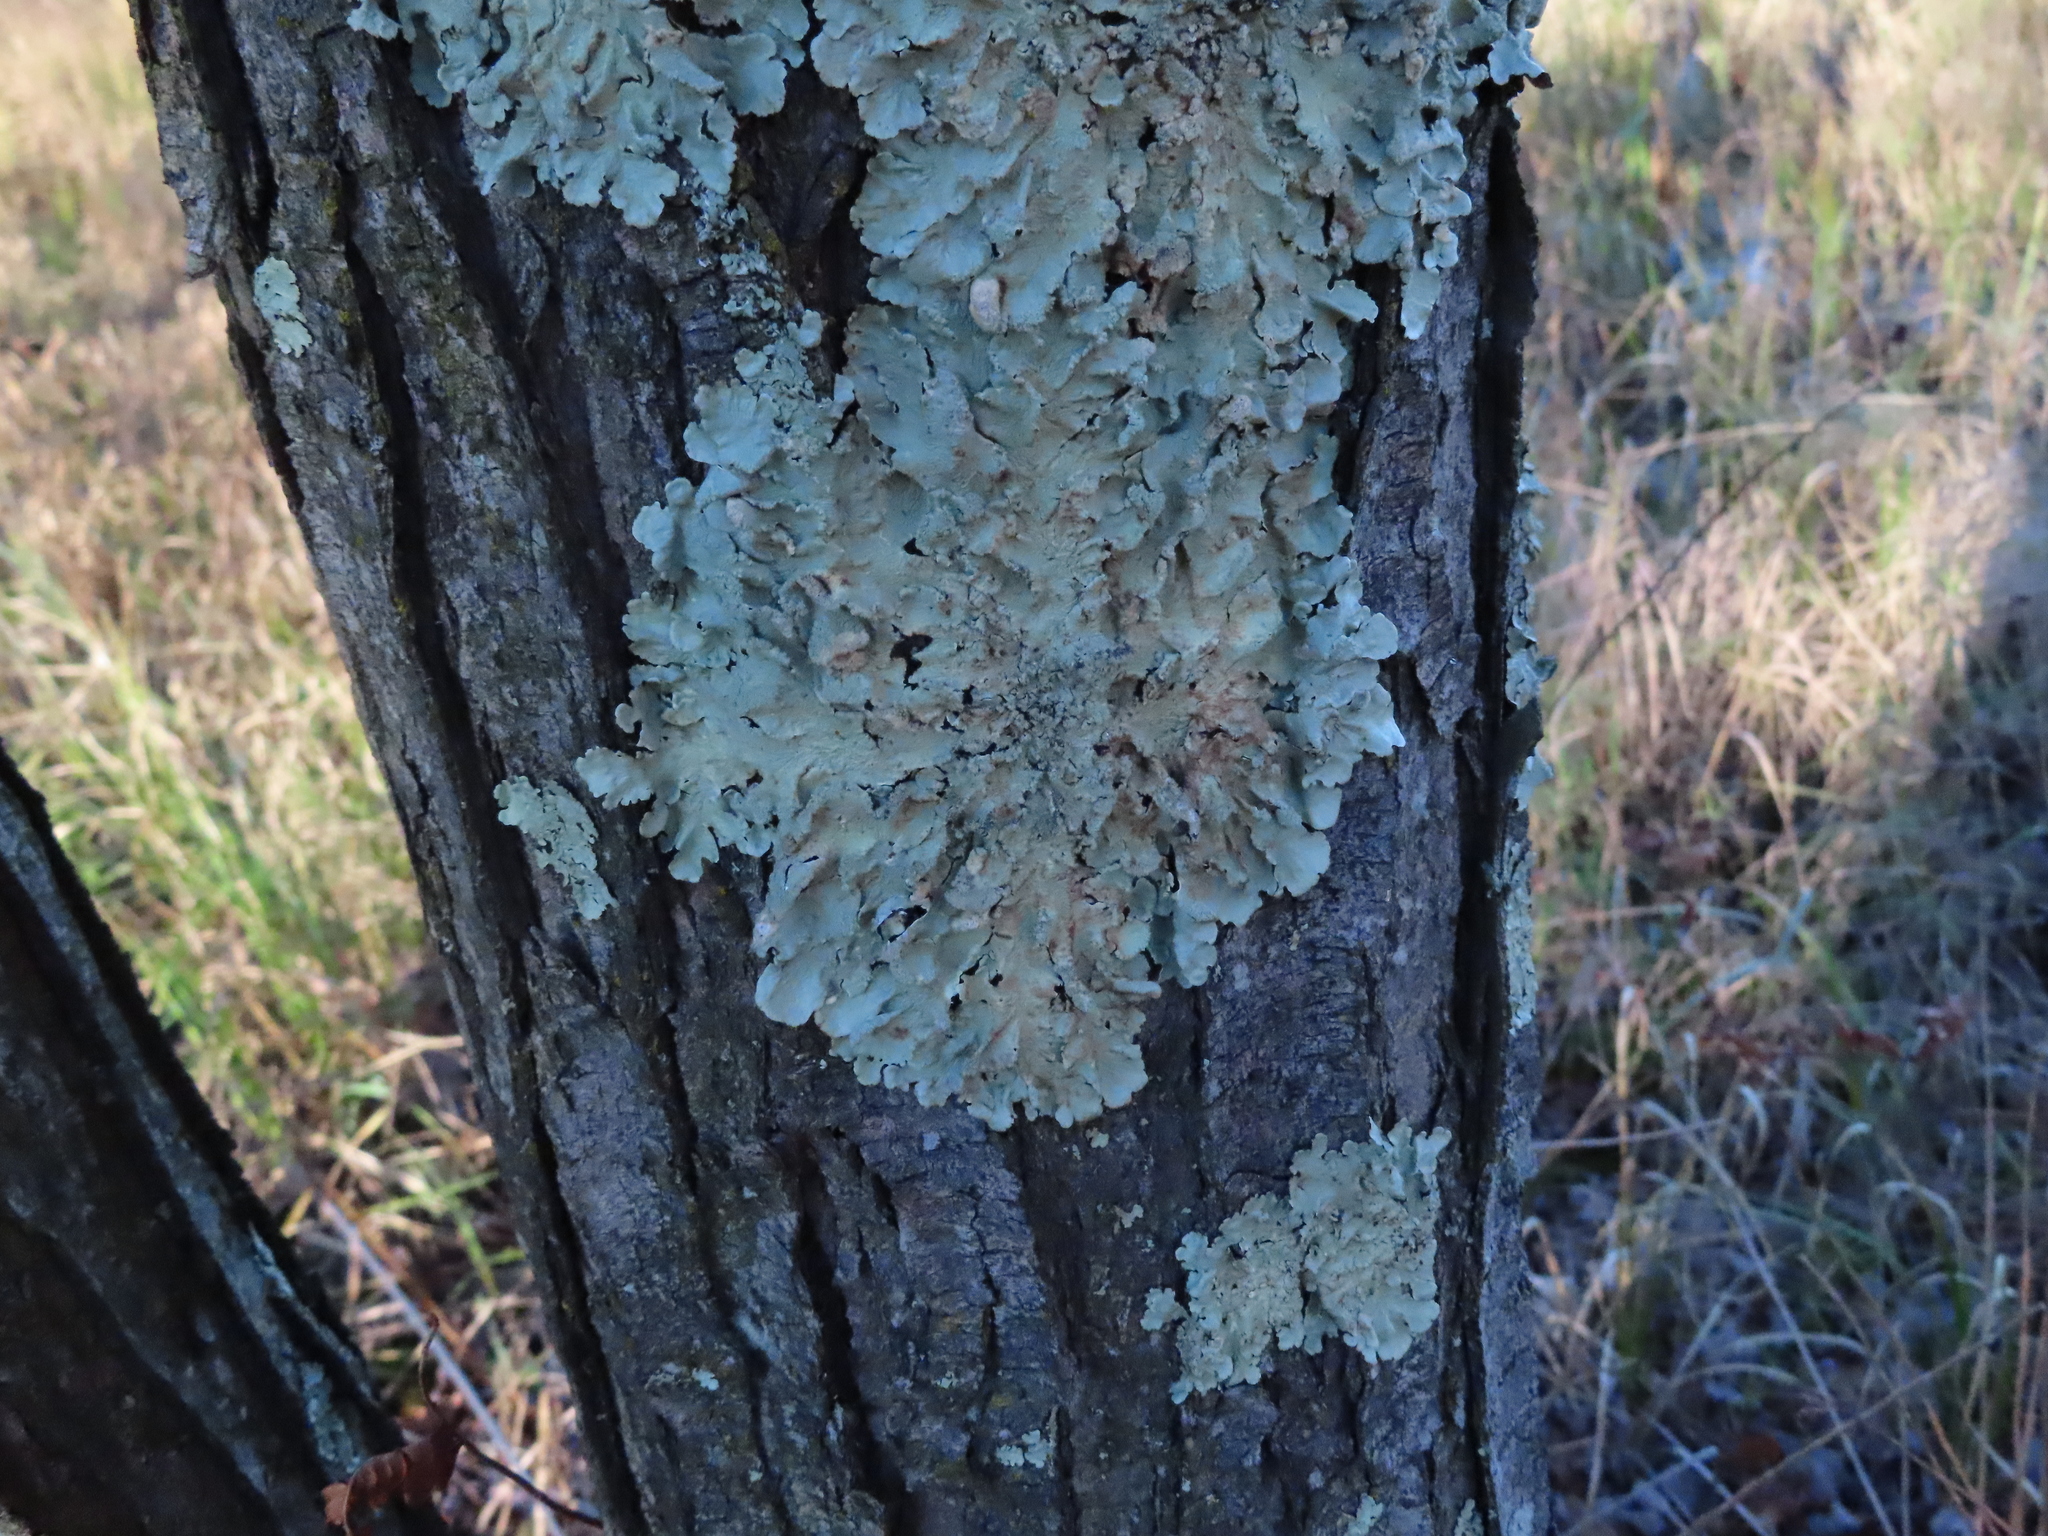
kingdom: Fungi
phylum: Ascomycota
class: Lecanoromycetes
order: Lecanorales
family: Parmeliaceae
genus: Flavoparmelia
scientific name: Flavoparmelia caperata
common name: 40-mile per hour lichen
